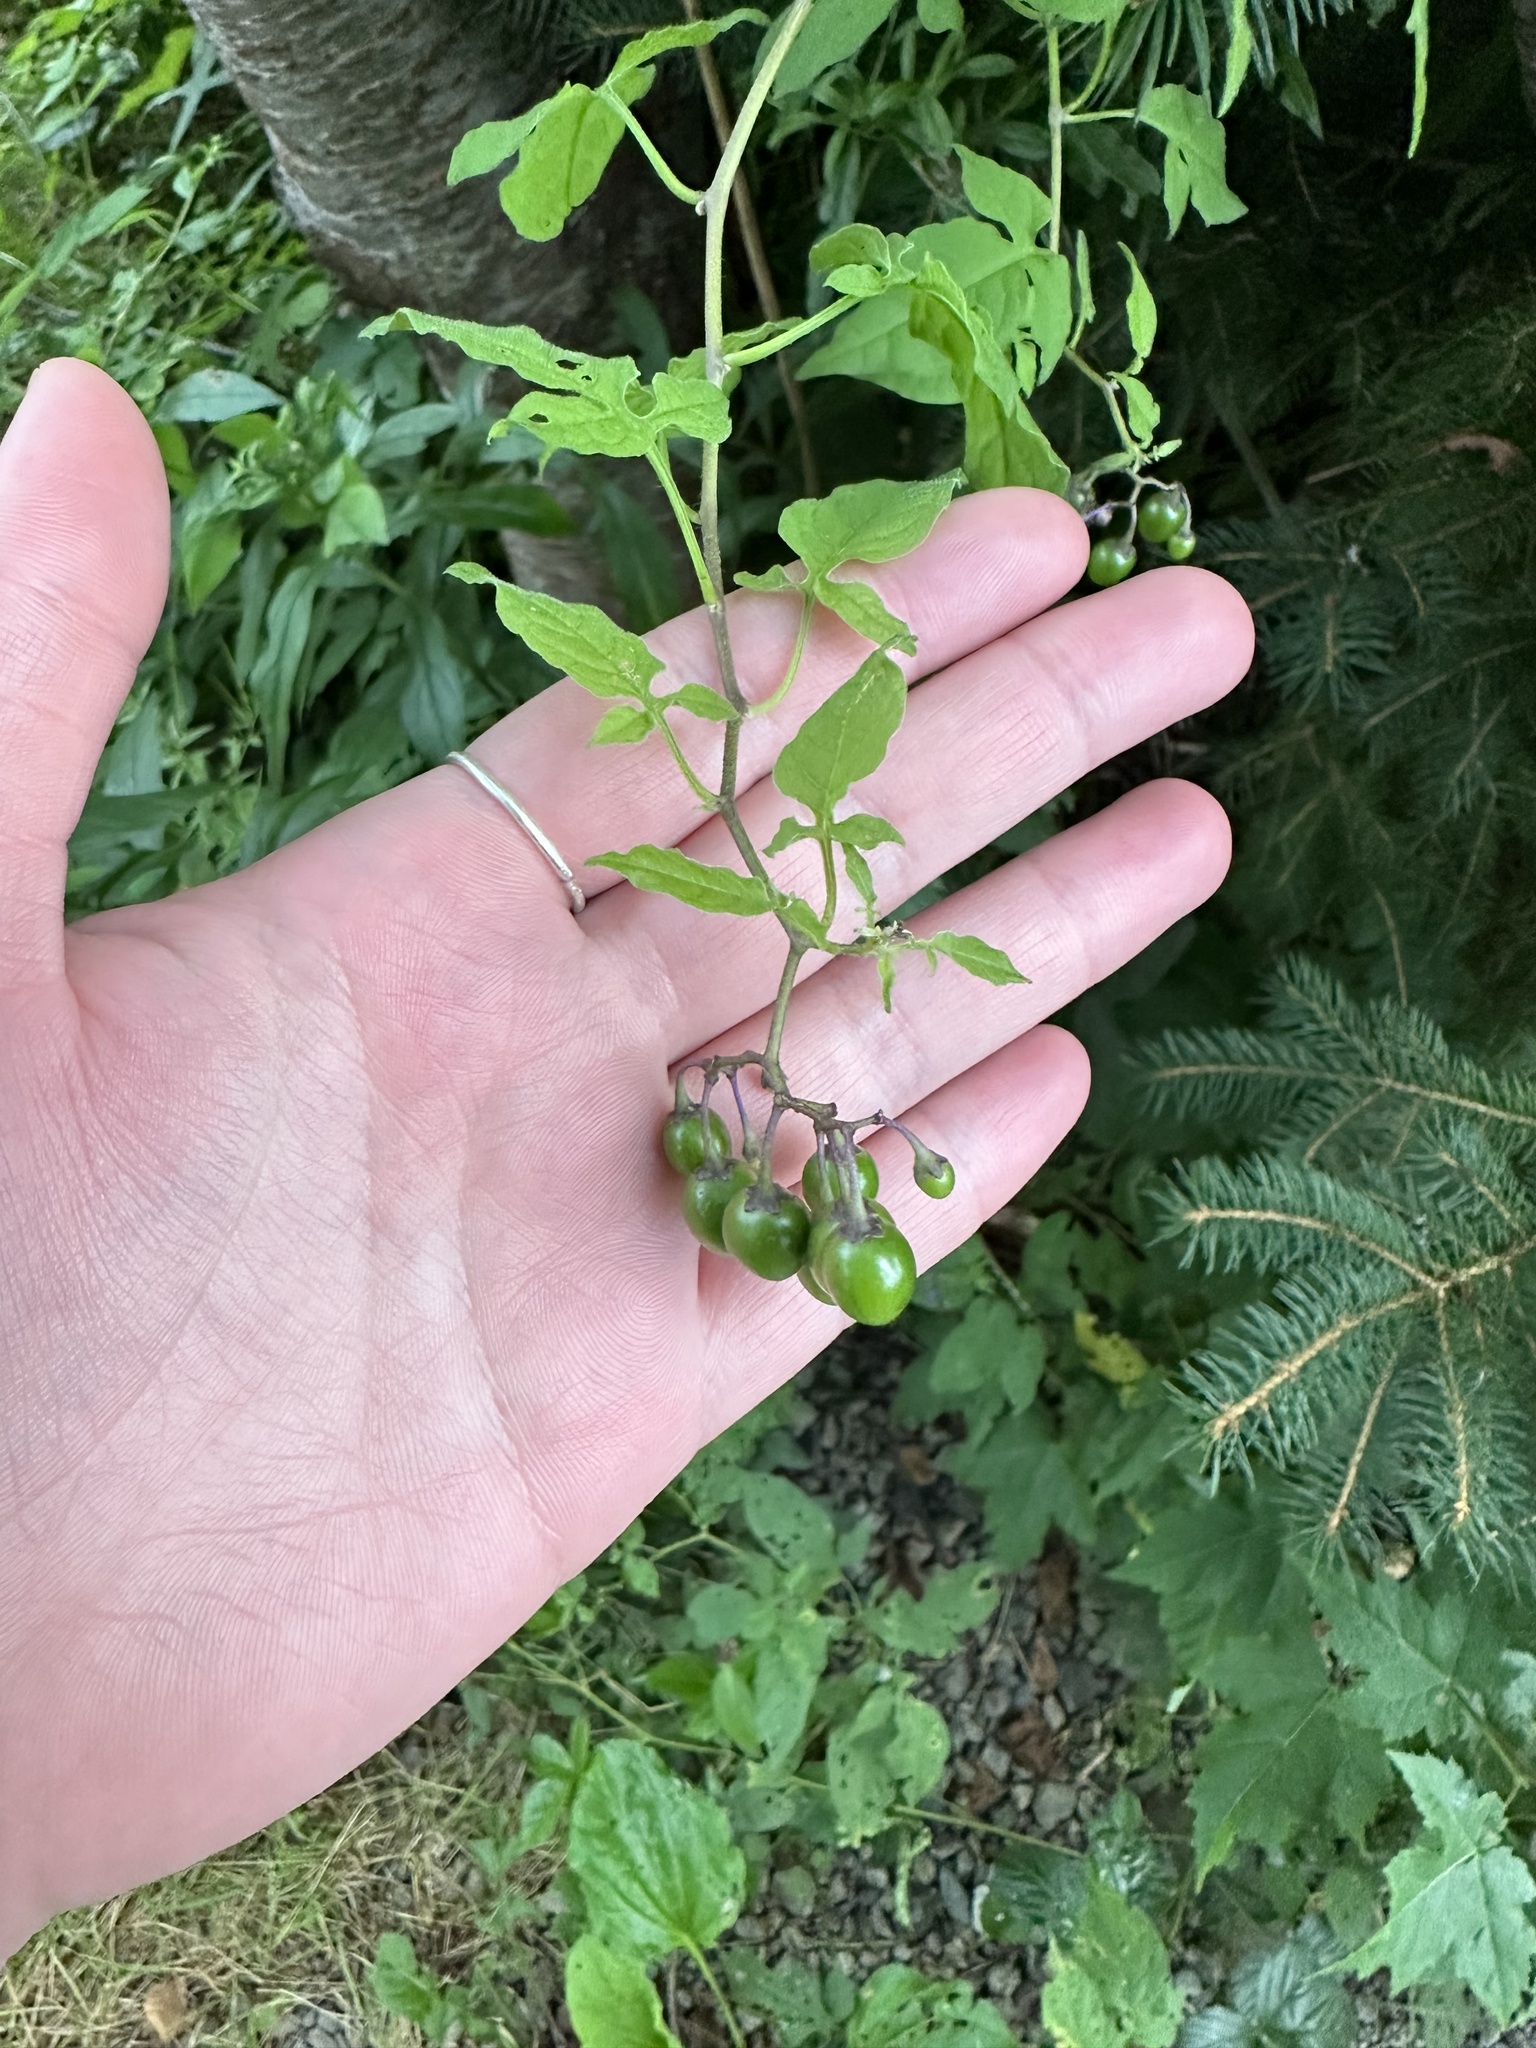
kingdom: Plantae
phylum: Tracheophyta
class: Magnoliopsida
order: Solanales
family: Solanaceae
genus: Solanum
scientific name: Solanum dulcamara
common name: Climbing nightshade
